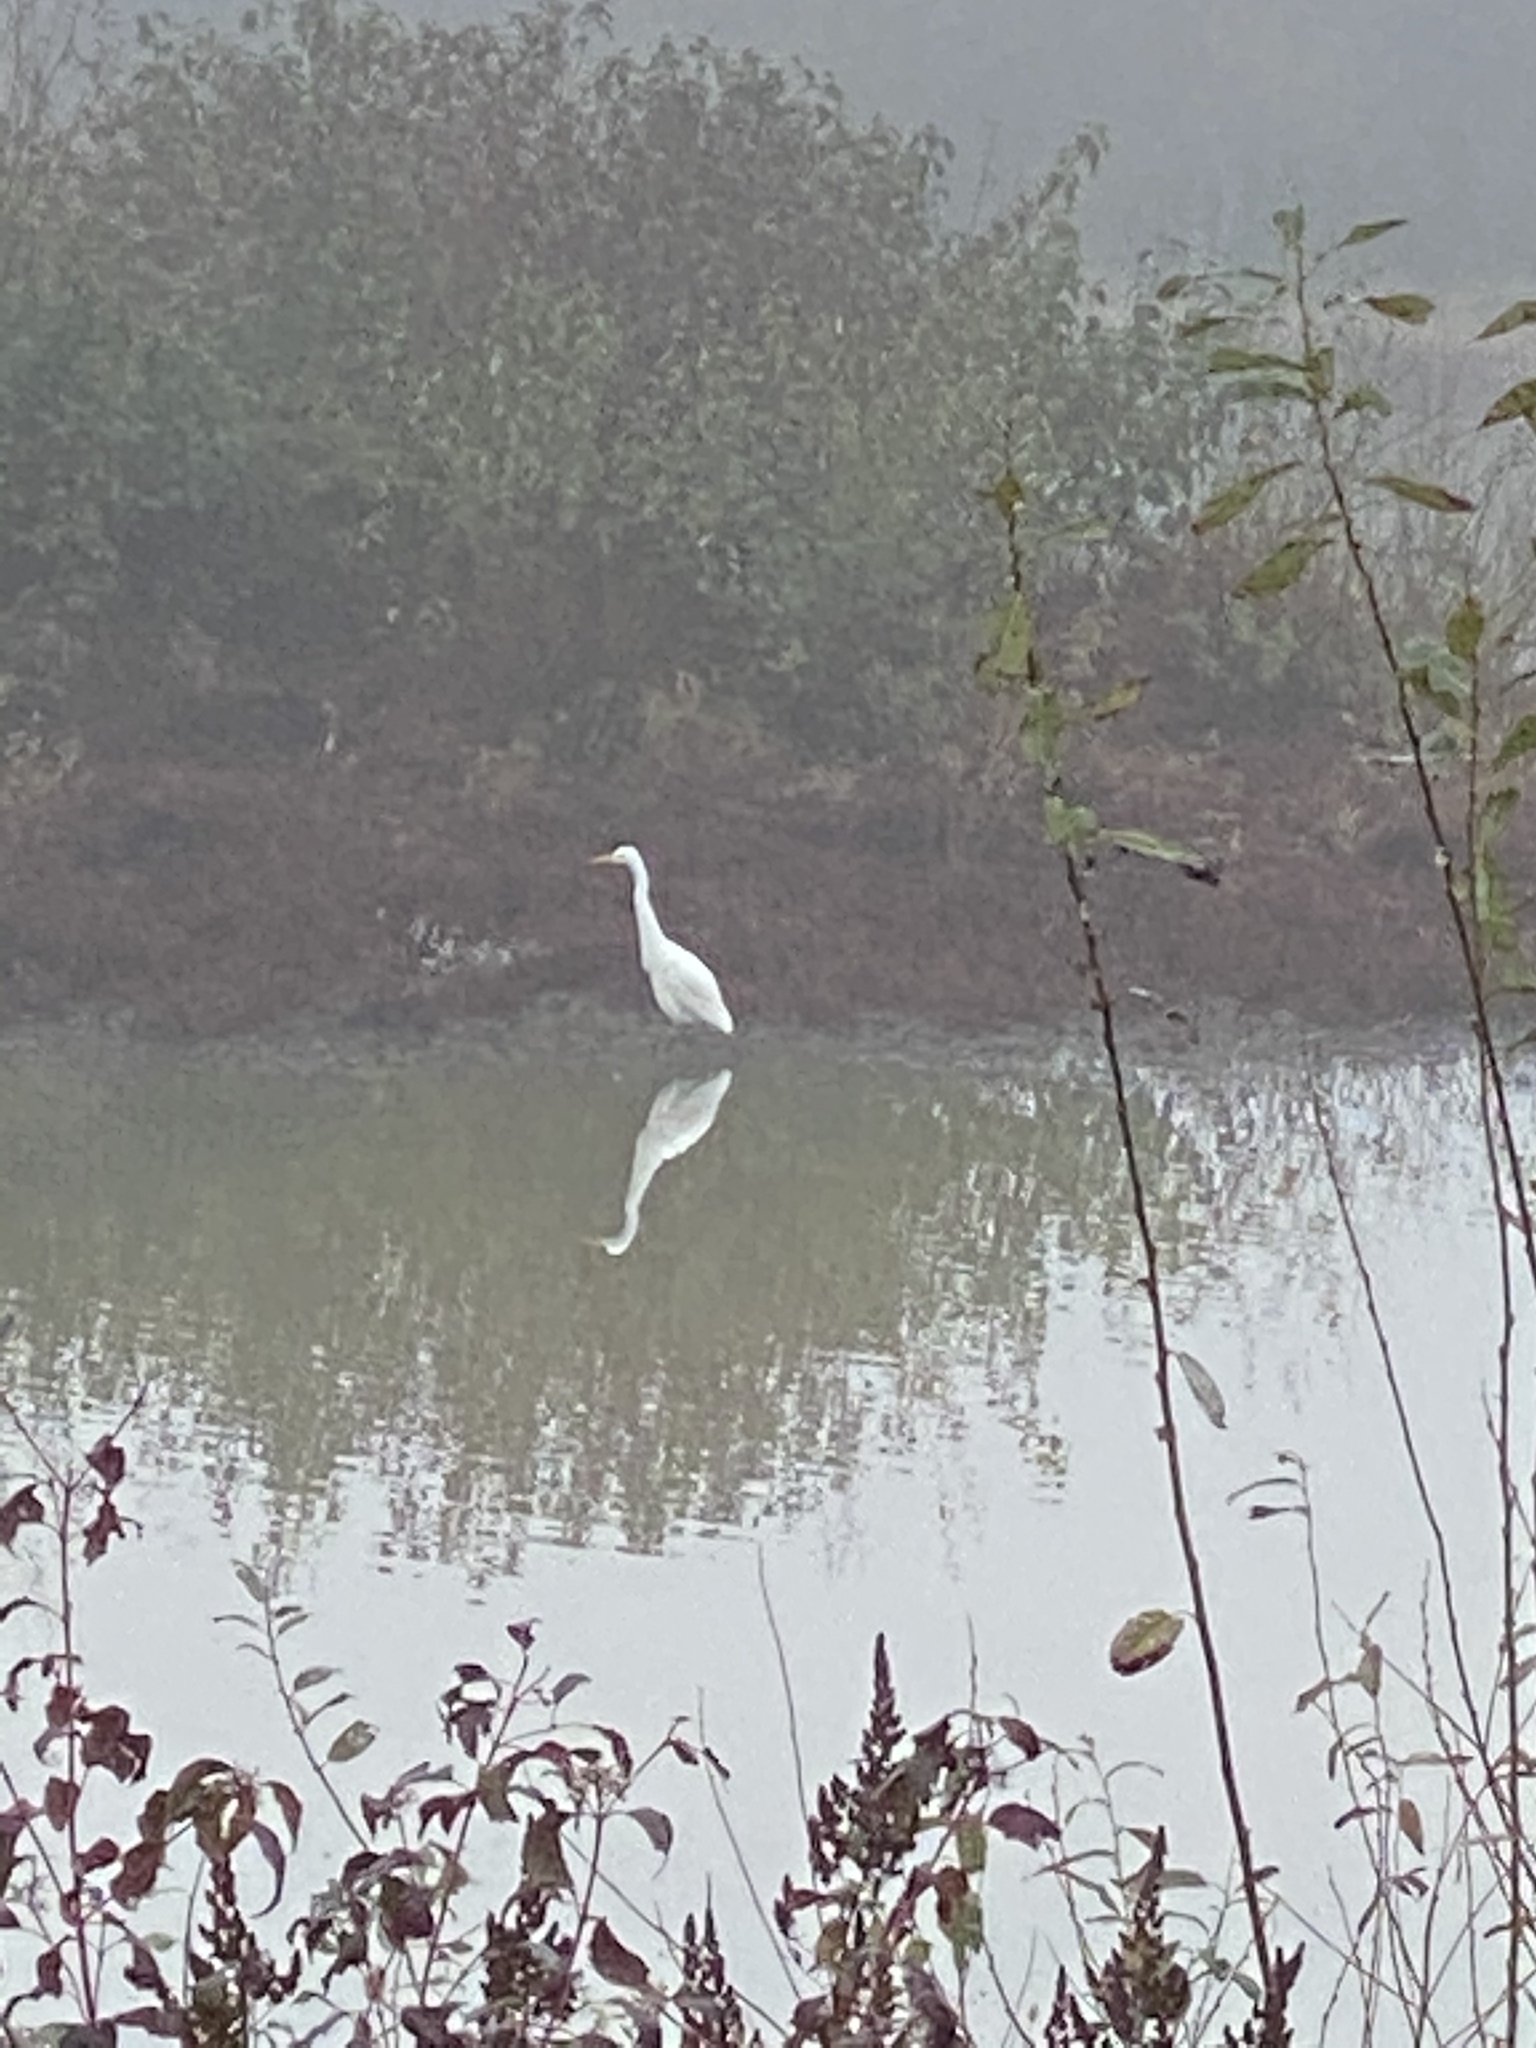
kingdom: Animalia
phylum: Chordata
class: Aves
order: Pelecaniformes
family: Ardeidae
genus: Ardea
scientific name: Ardea alba
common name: Great egret
